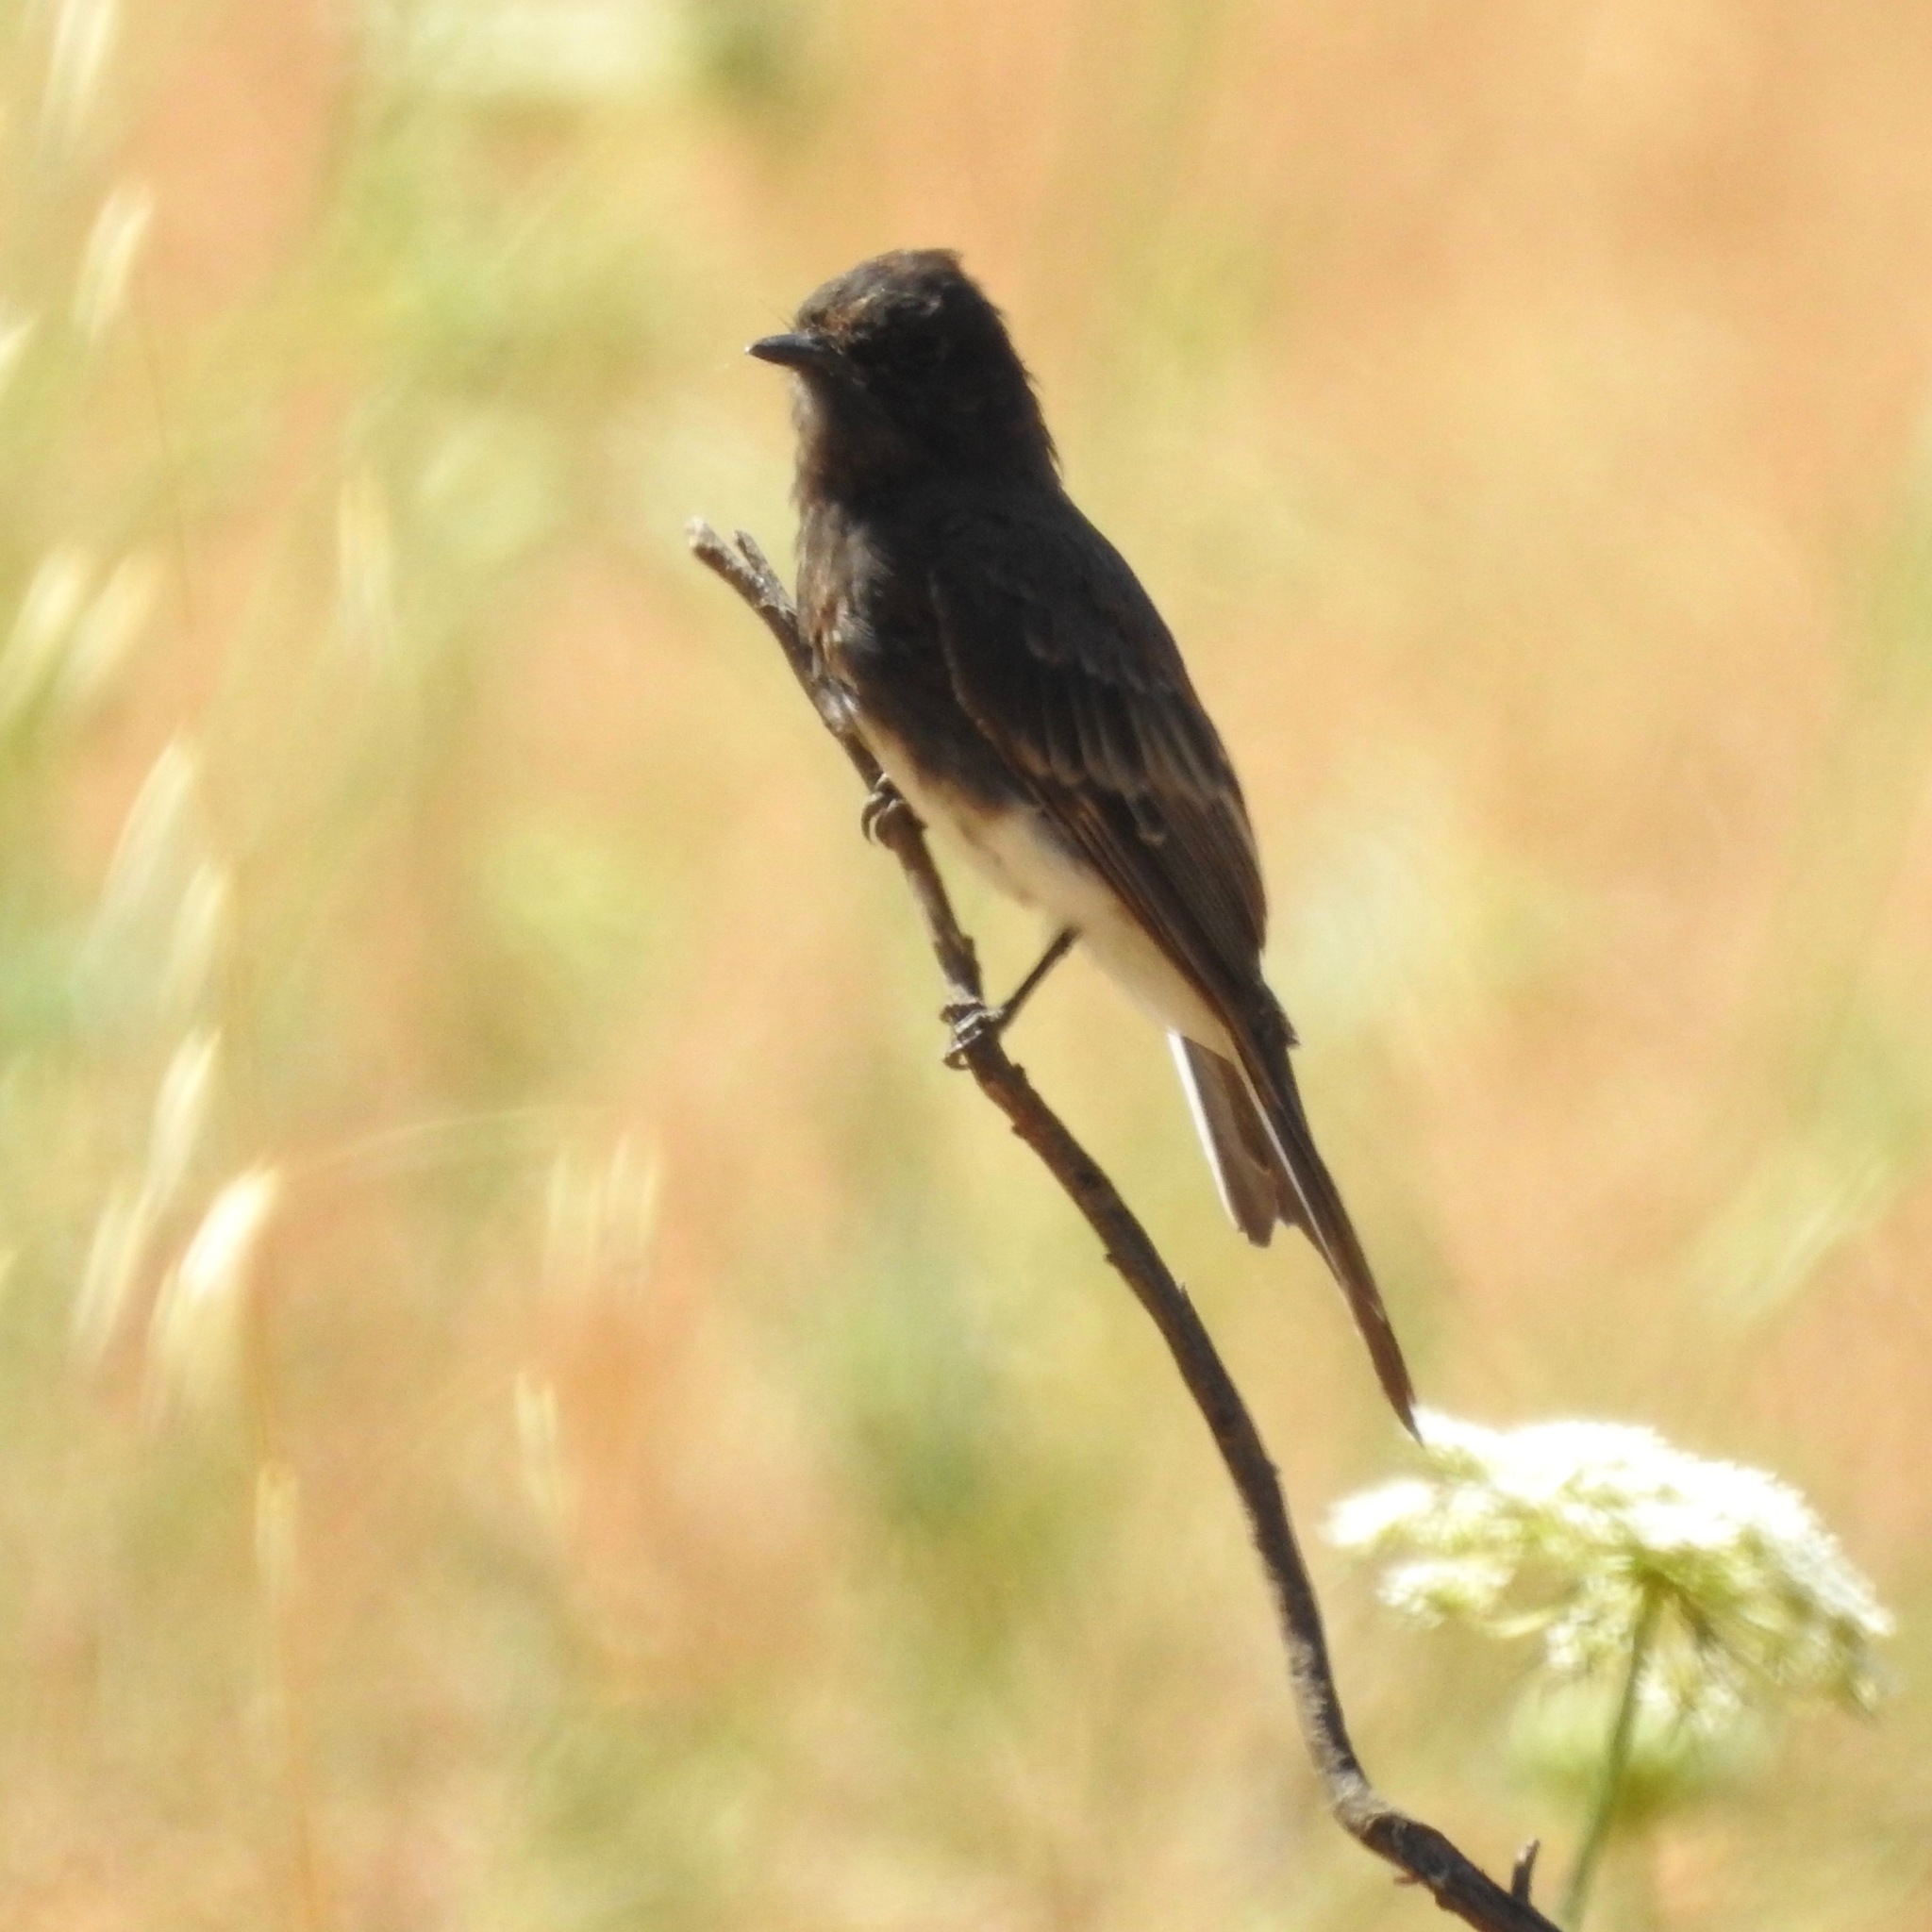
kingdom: Animalia
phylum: Chordata
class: Aves
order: Passeriformes
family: Tyrannidae
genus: Sayornis
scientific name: Sayornis nigricans
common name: Black phoebe
